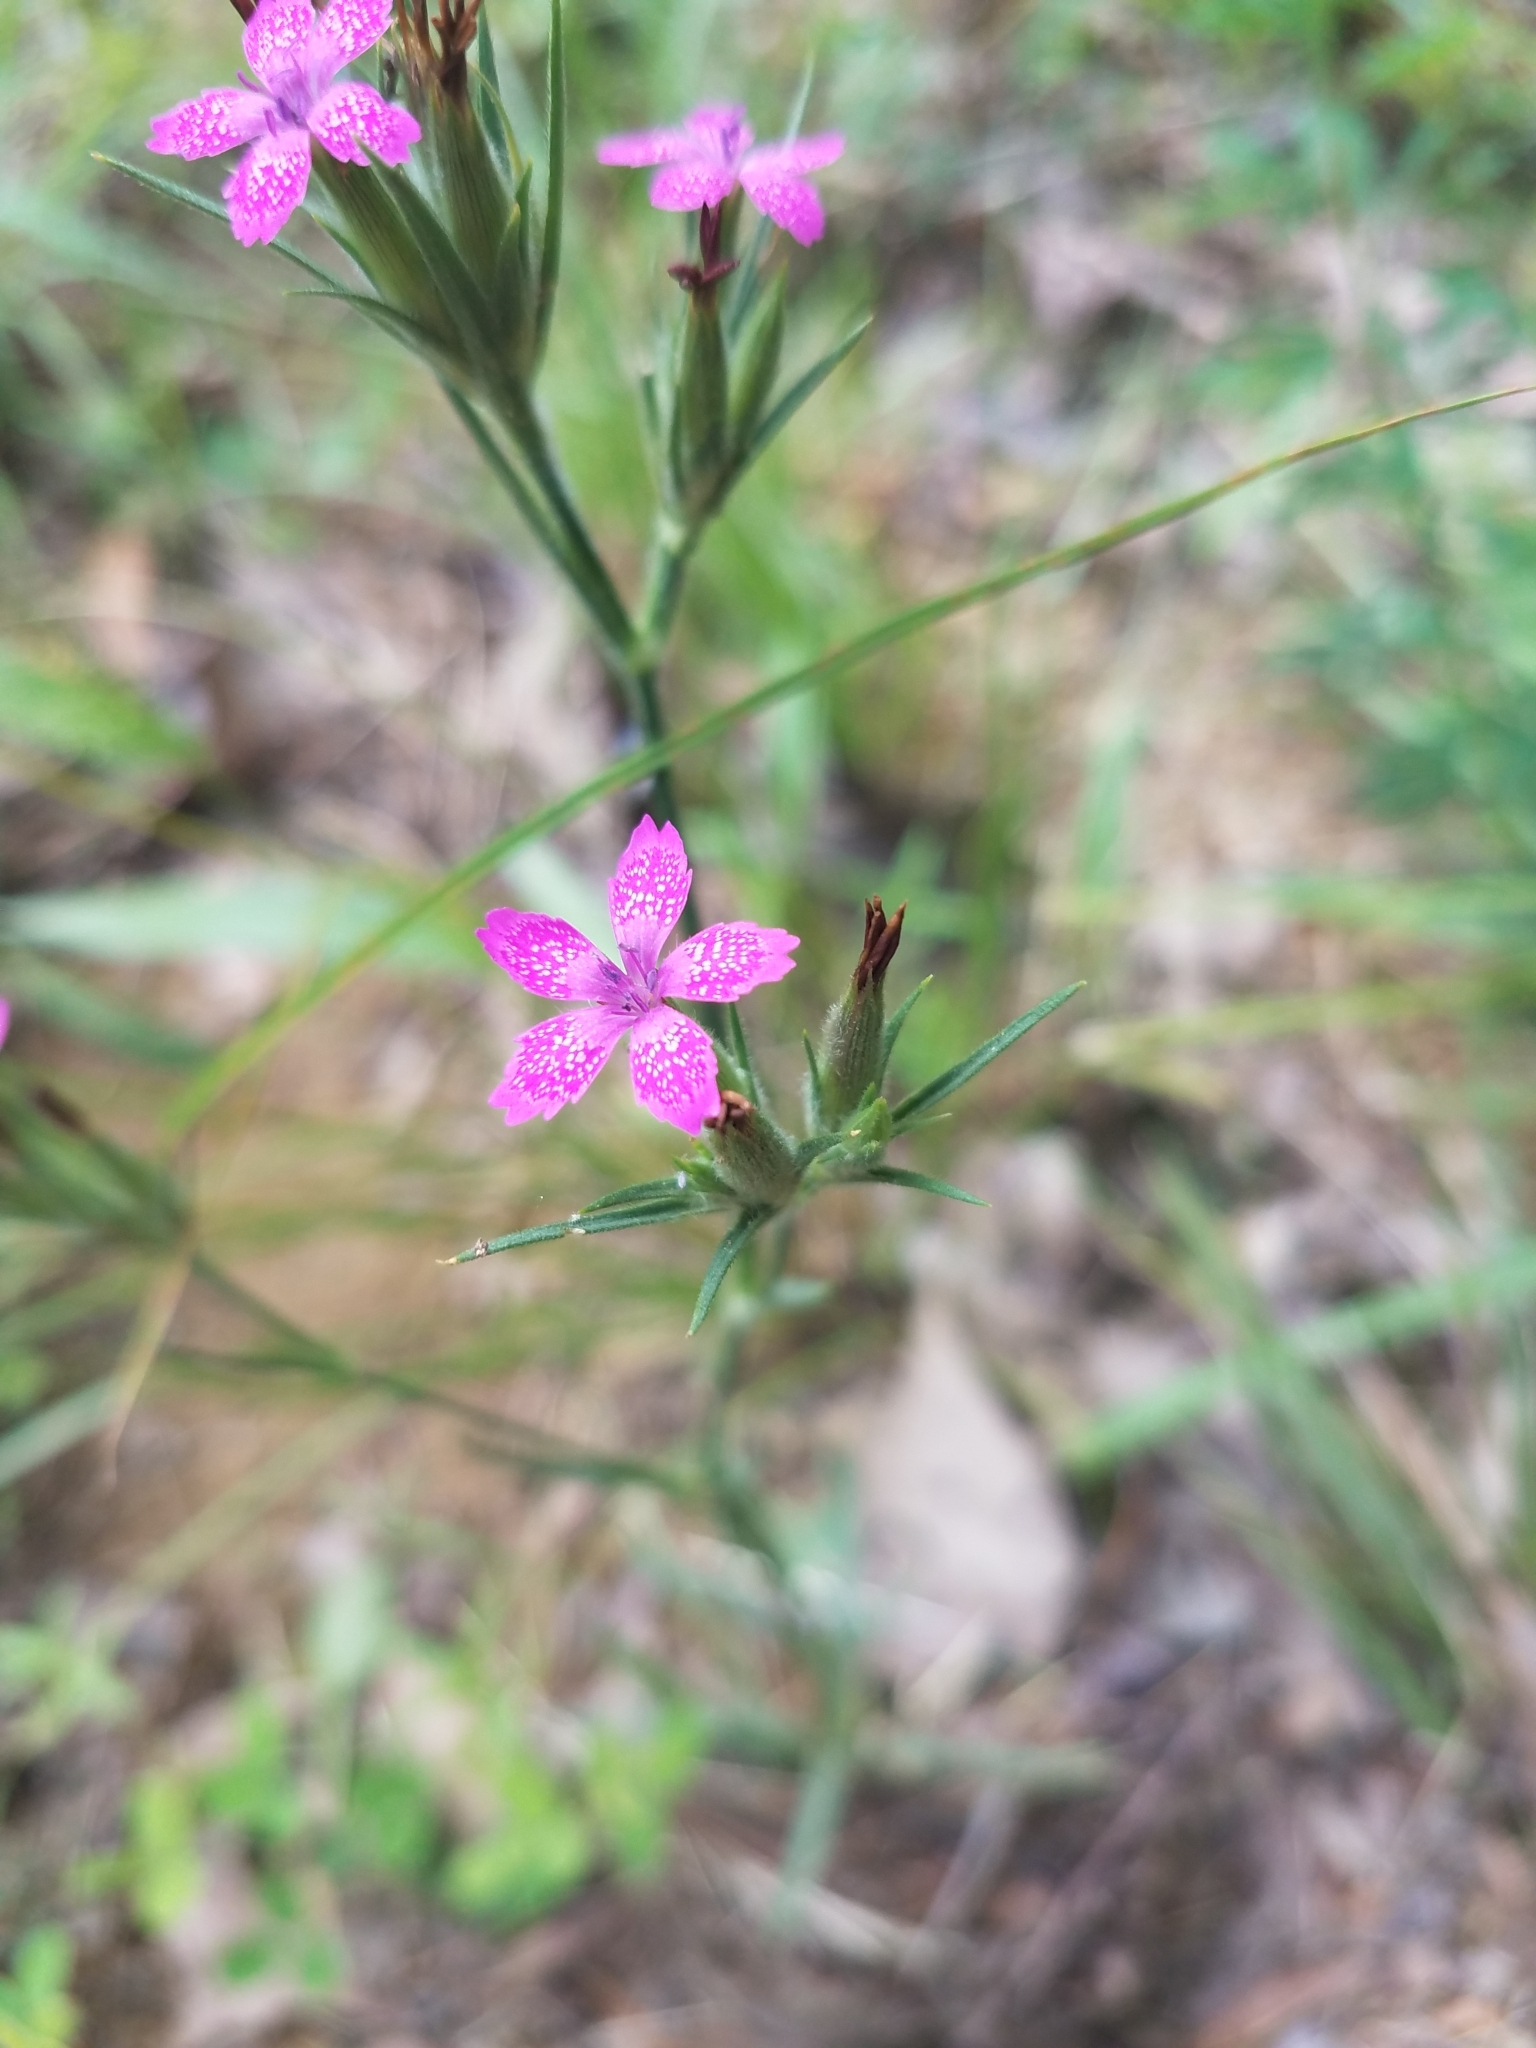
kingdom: Plantae
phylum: Tracheophyta
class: Magnoliopsida
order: Caryophyllales
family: Caryophyllaceae
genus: Dianthus
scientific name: Dianthus armeria
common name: Deptford pink
